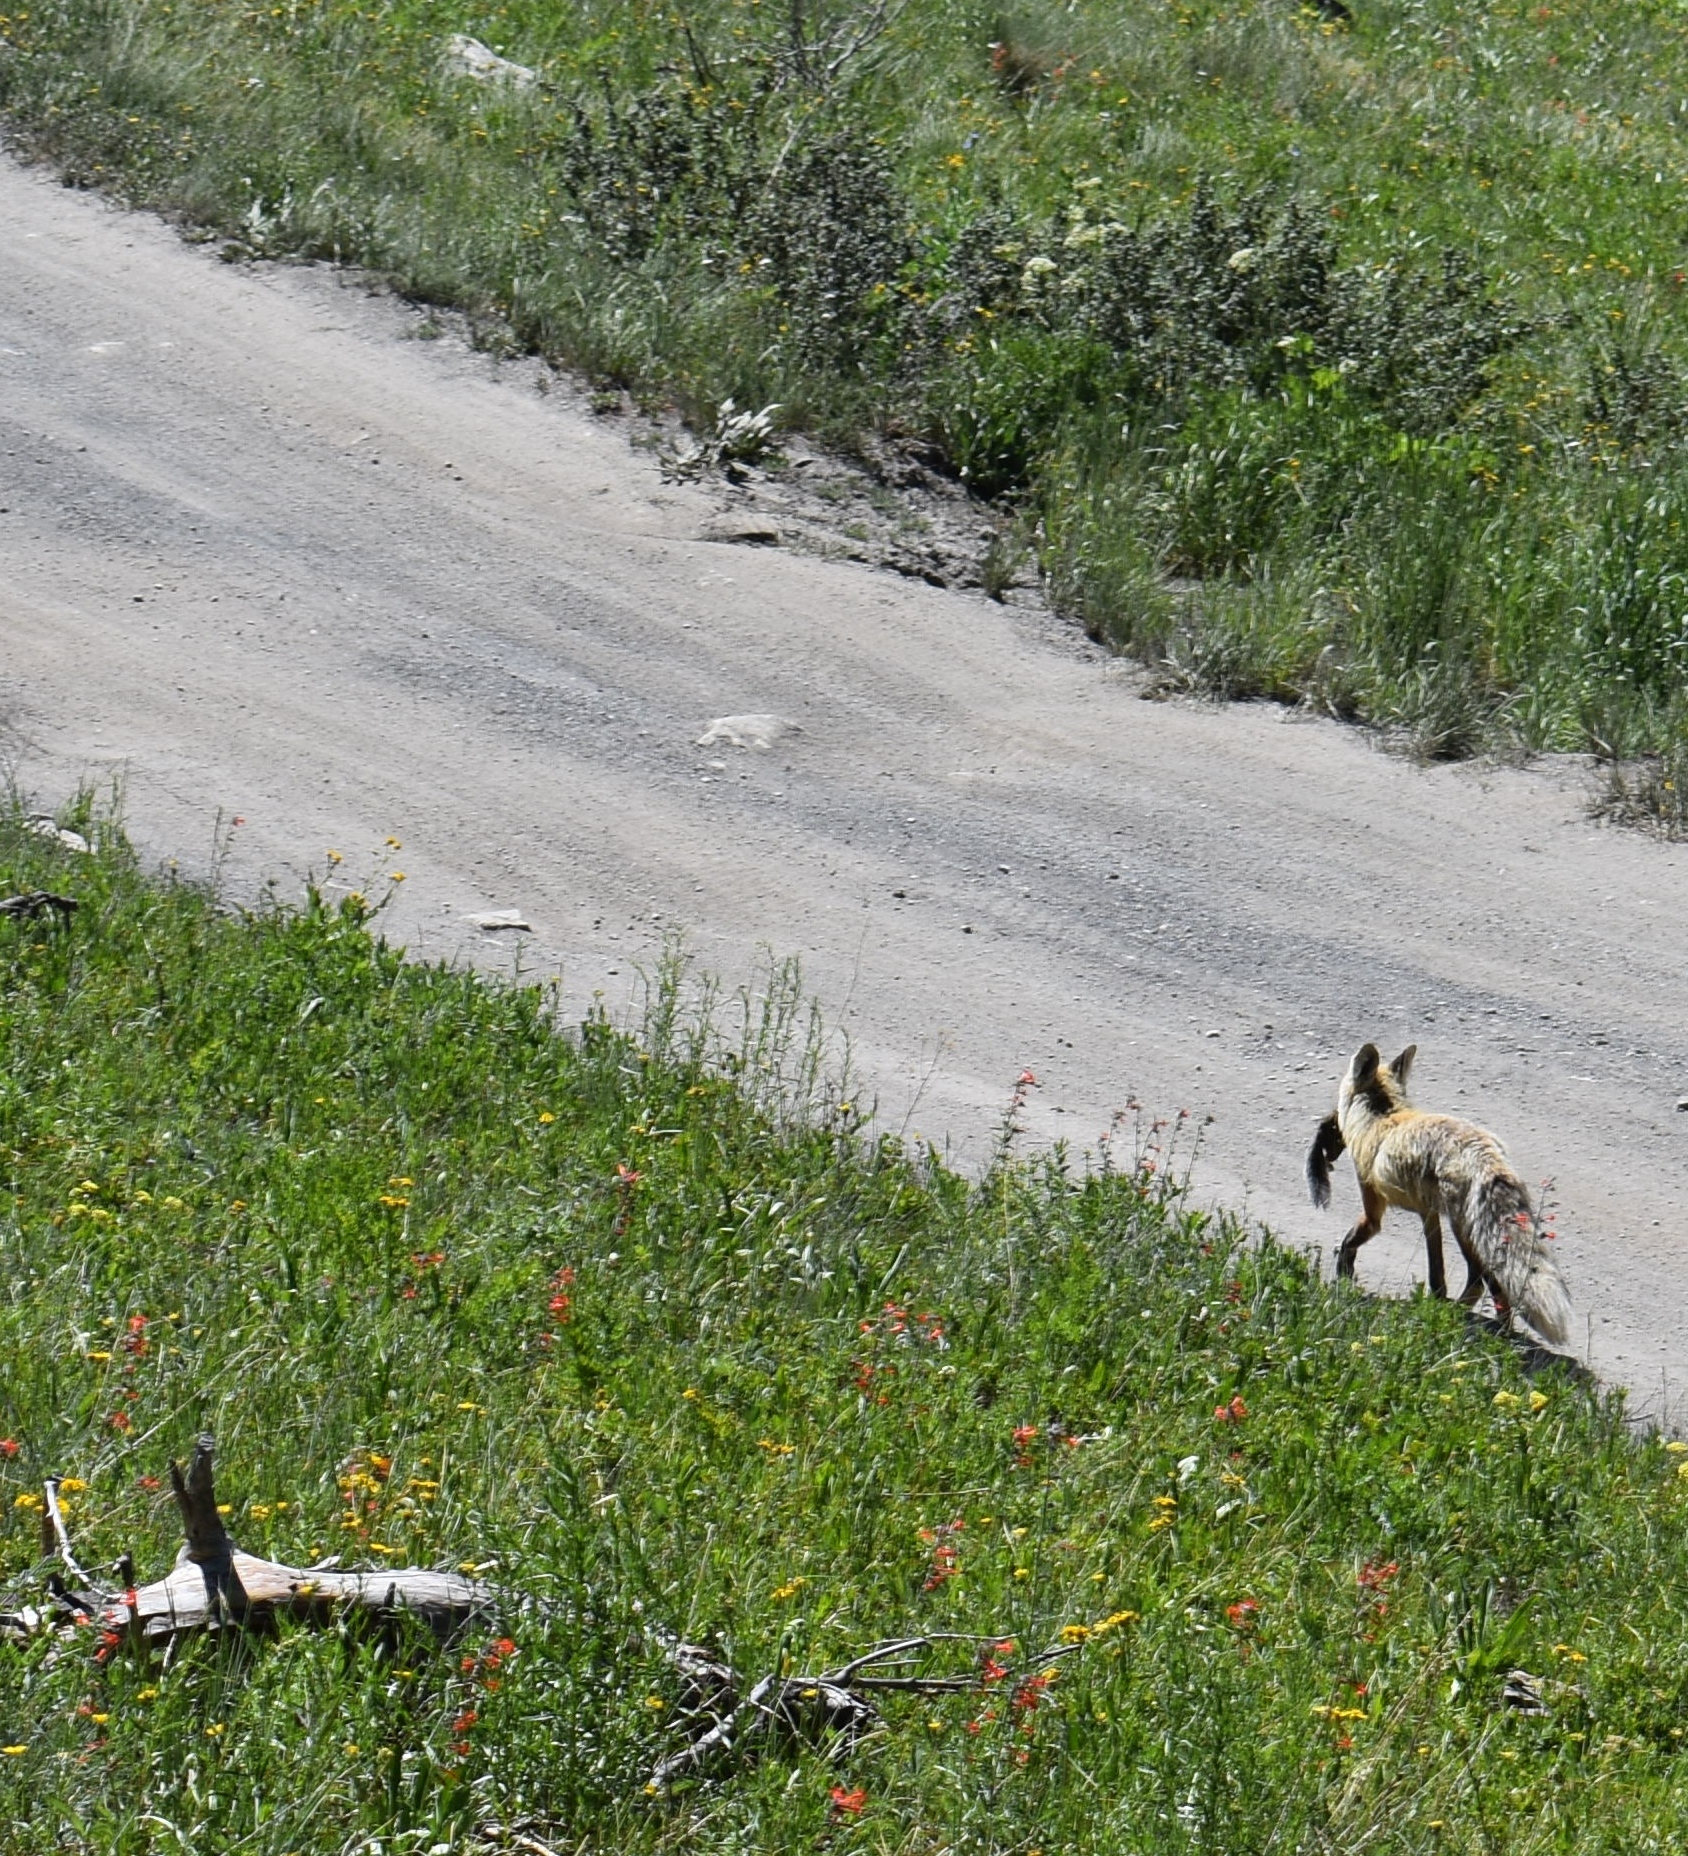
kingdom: Animalia
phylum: Chordata
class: Mammalia
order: Carnivora
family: Canidae
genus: Vulpes
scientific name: Vulpes vulpes
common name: Red fox
